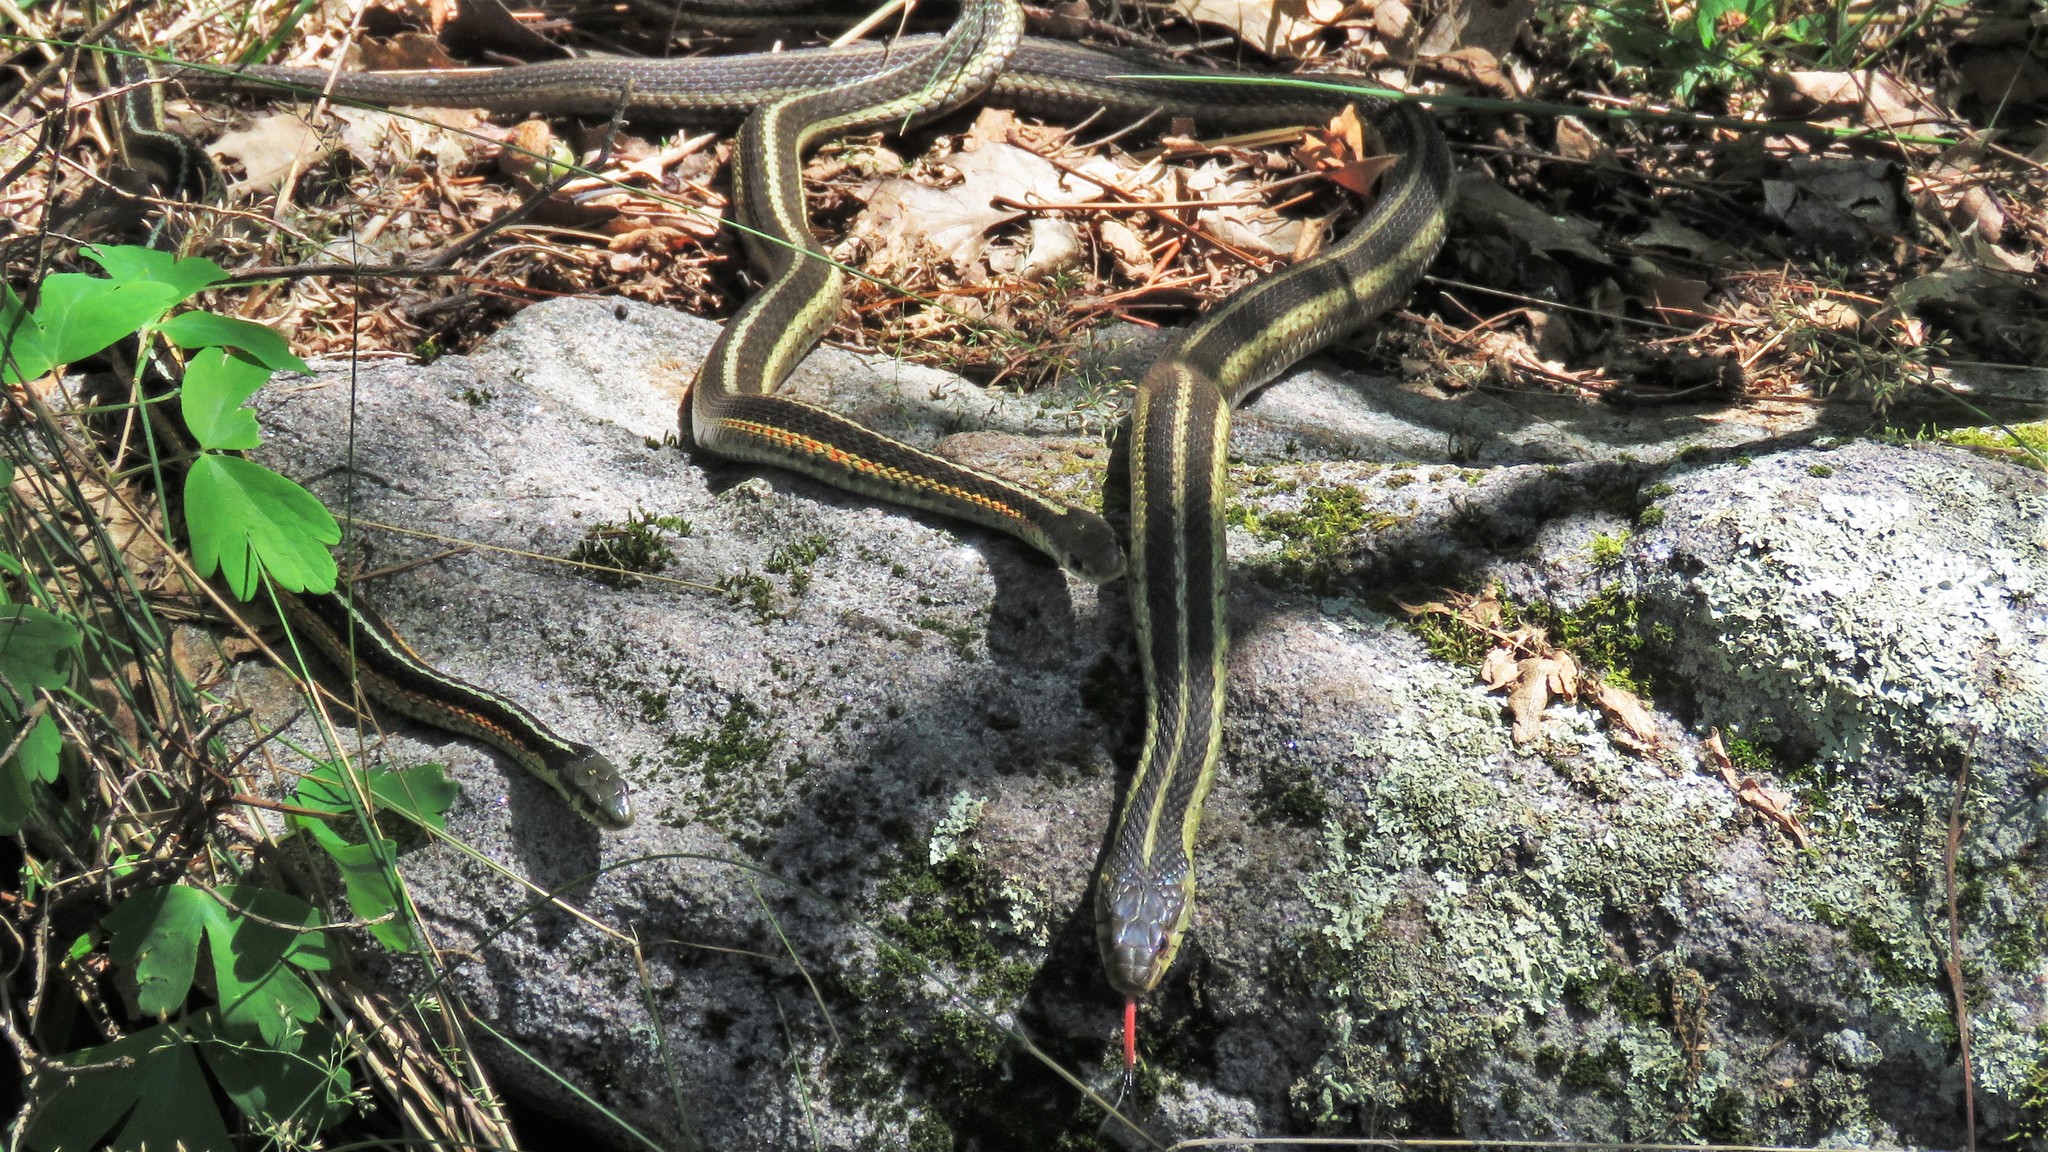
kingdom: Animalia
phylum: Chordata
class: Squamata
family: Colubridae
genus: Thamnophis
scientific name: Thamnophis sirtalis
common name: Common garter snake
